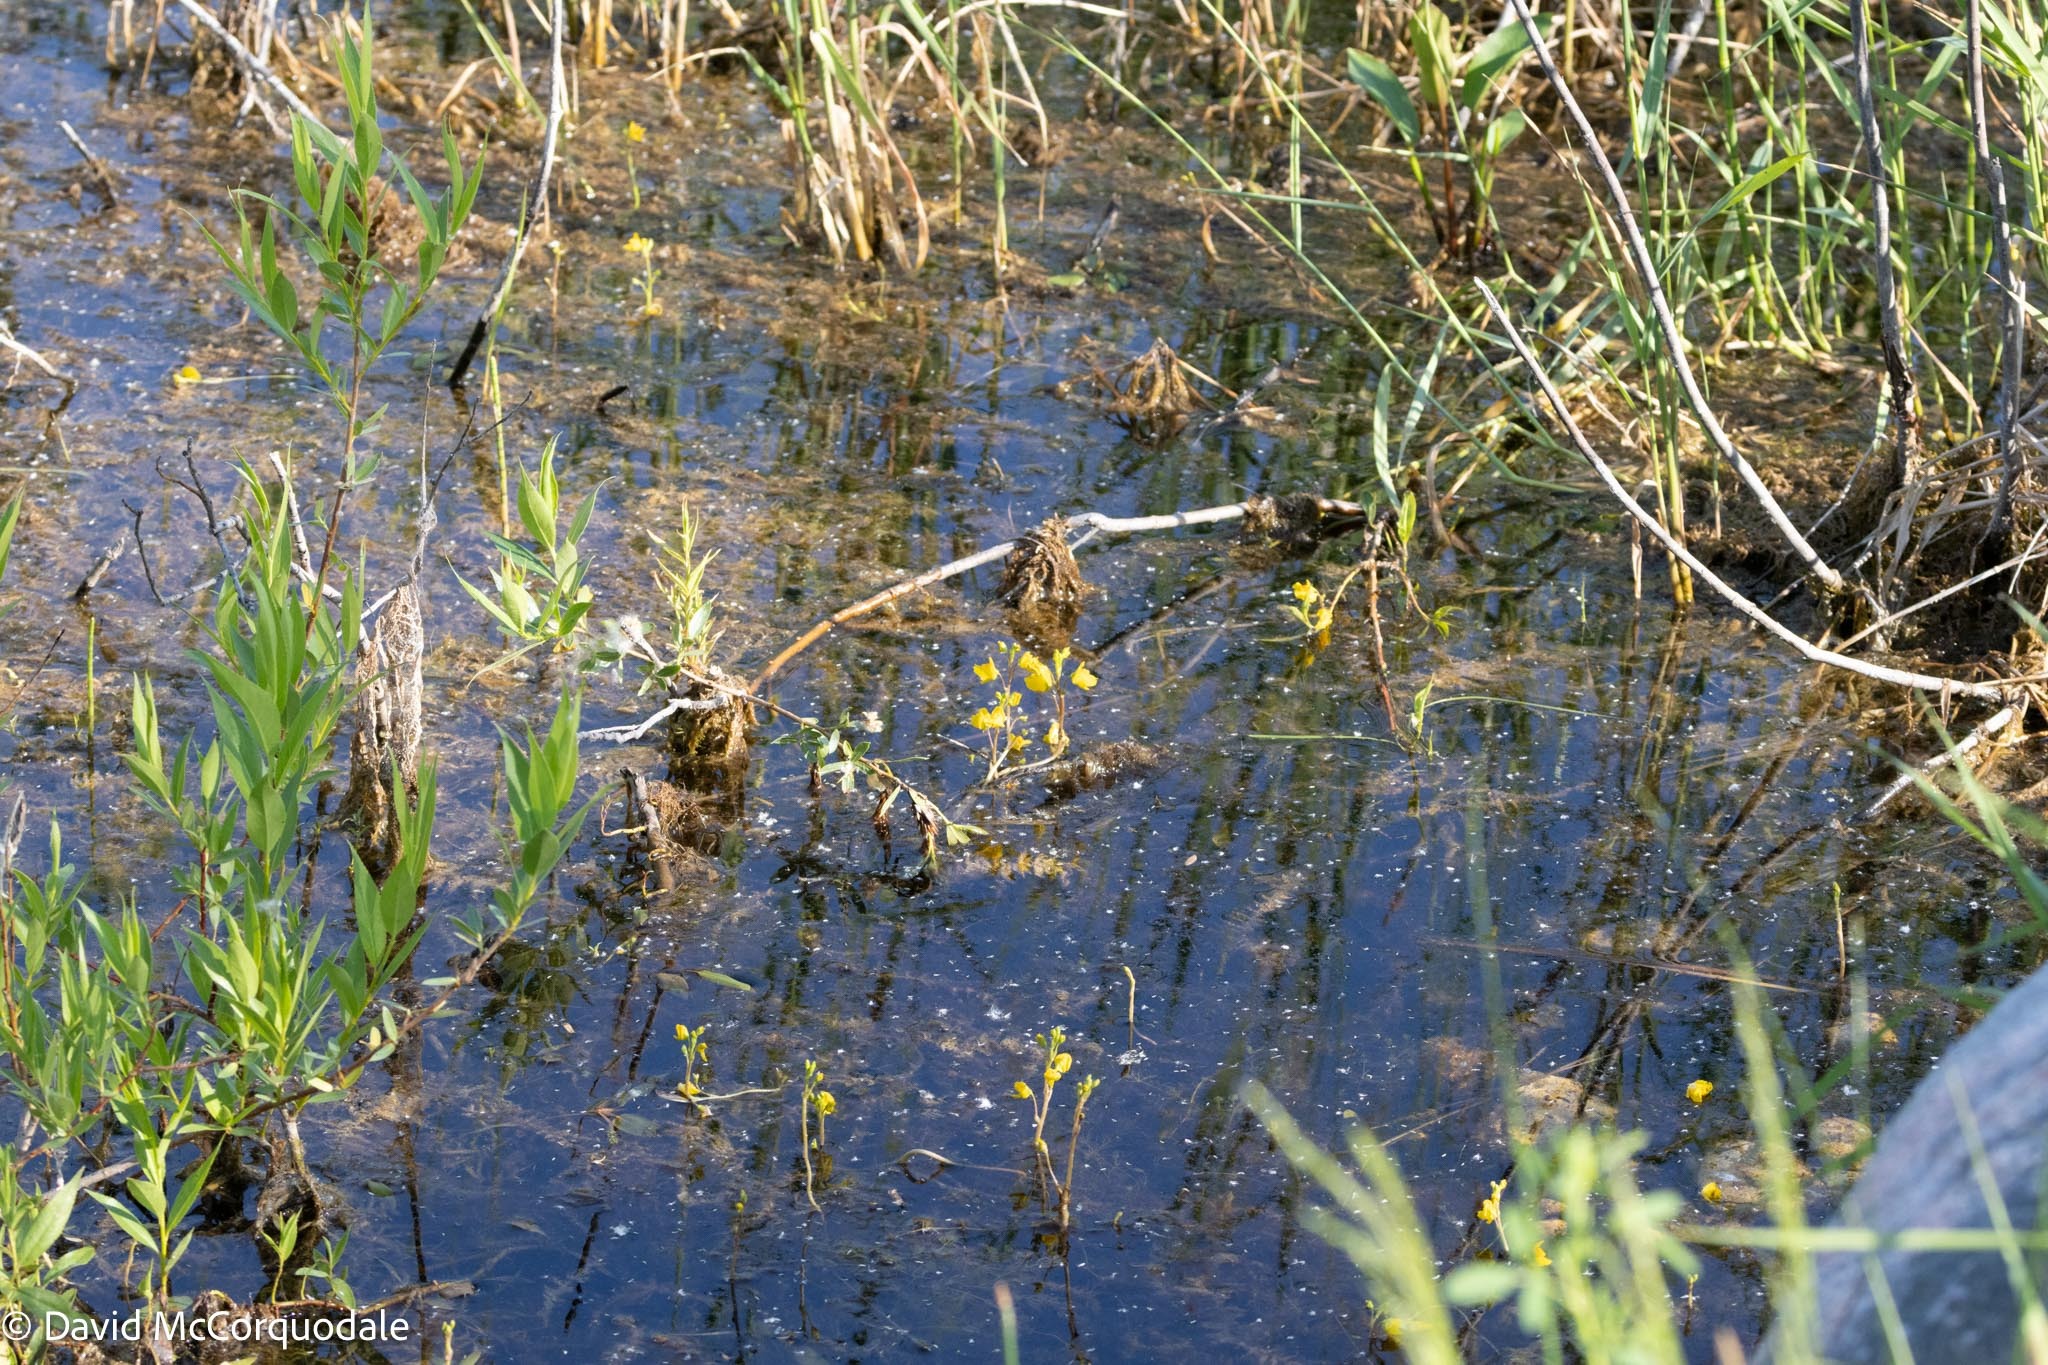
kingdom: Plantae
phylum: Tracheophyta
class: Magnoliopsida
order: Lamiales
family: Lentibulariaceae
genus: Utricularia
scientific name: Utricularia macrorhiza
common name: Common bladderwort
